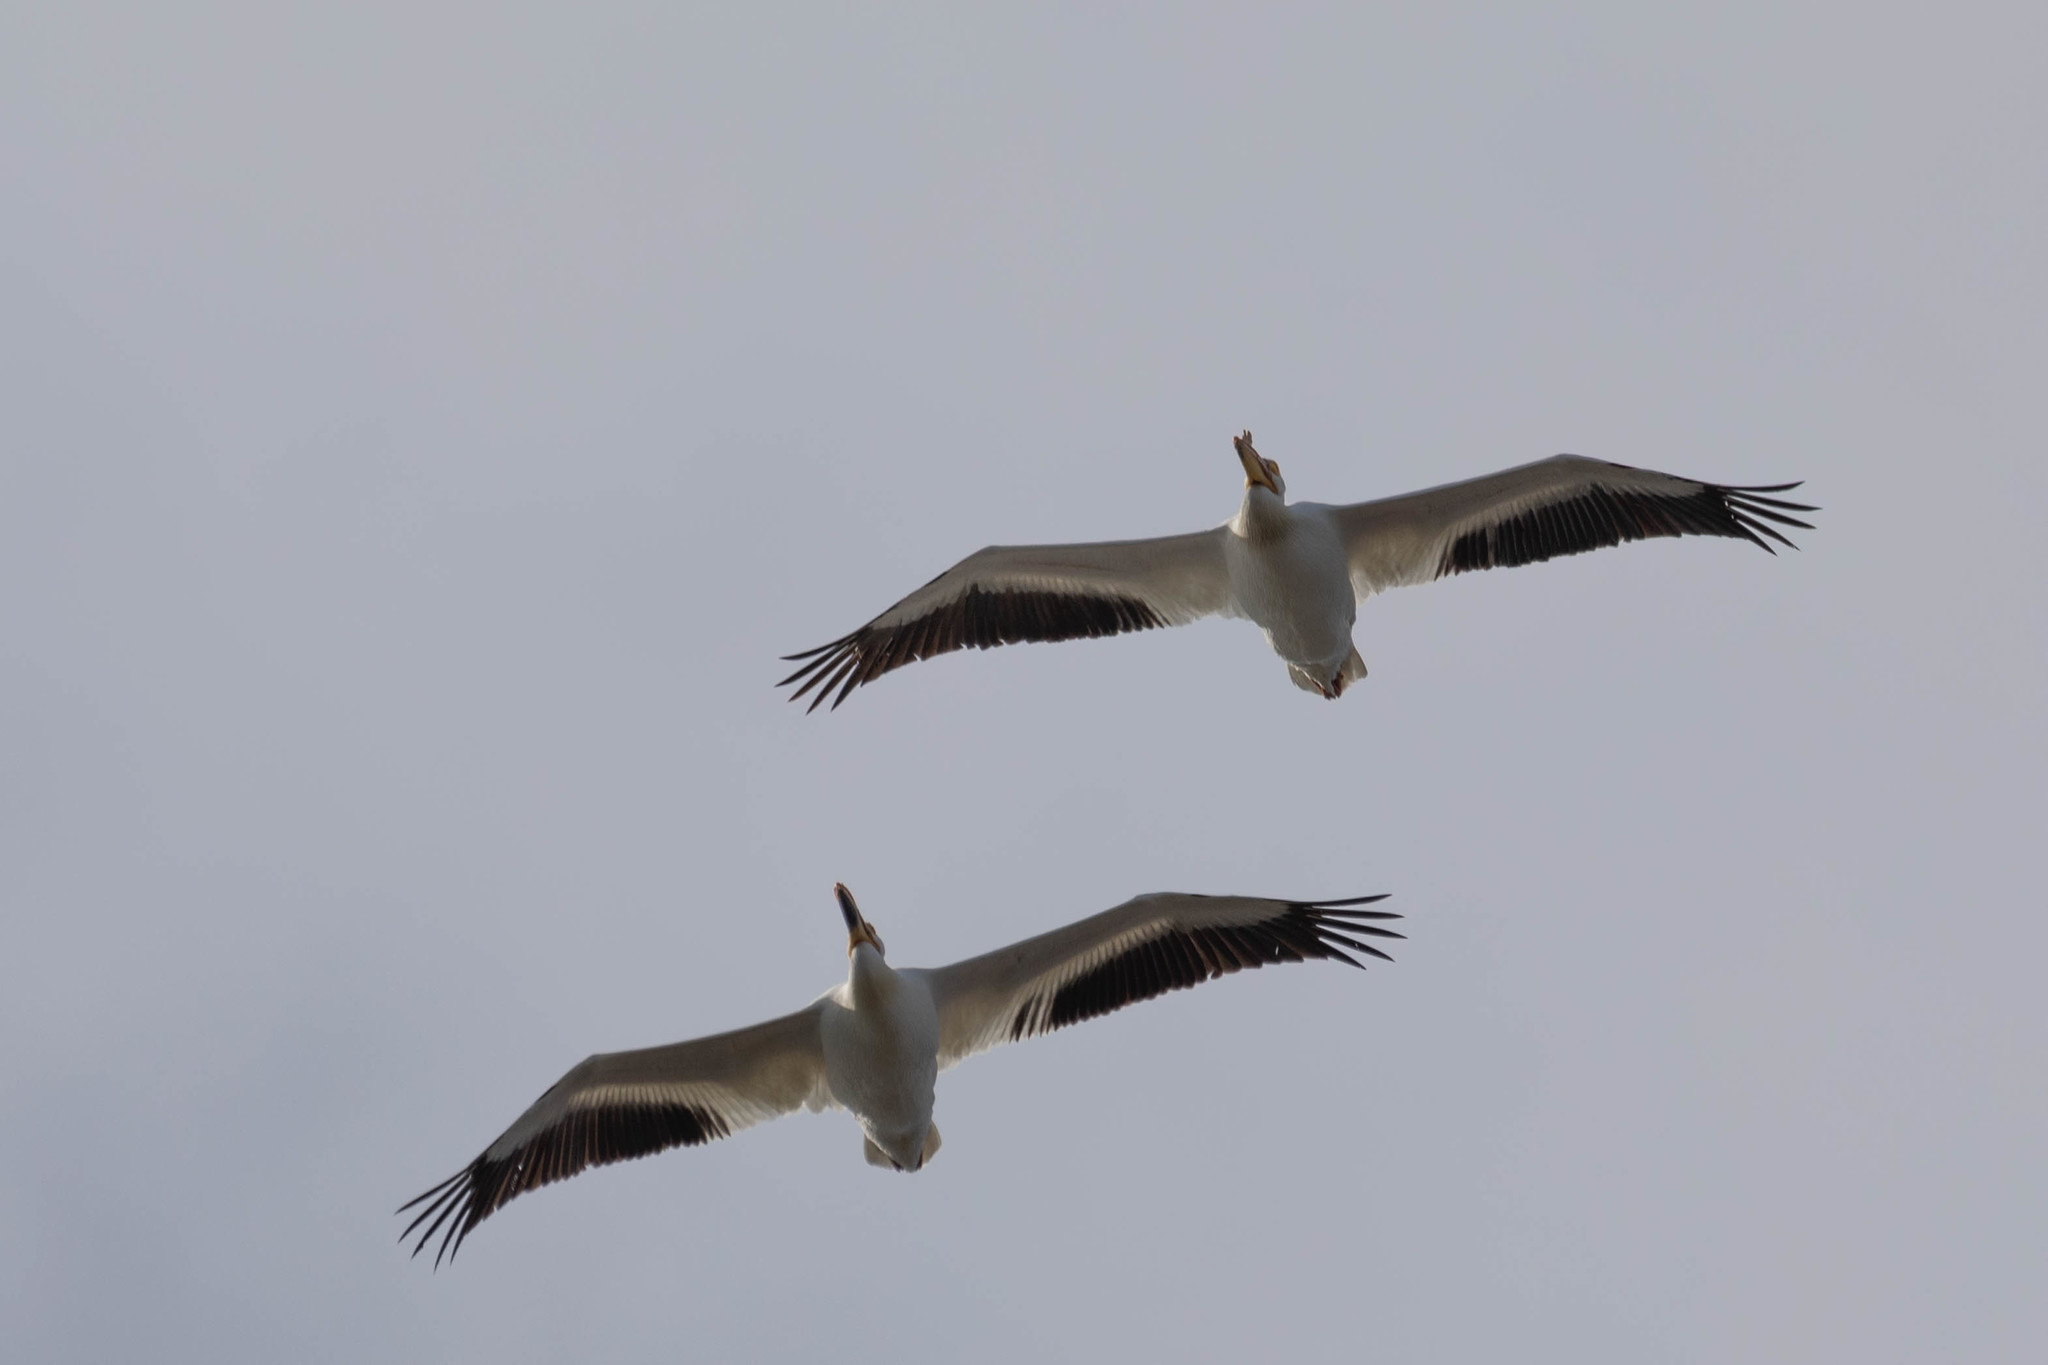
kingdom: Animalia
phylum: Chordata
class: Aves
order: Pelecaniformes
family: Pelecanidae
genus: Pelecanus
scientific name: Pelecanus erythrorhynchos
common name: American white pelican
